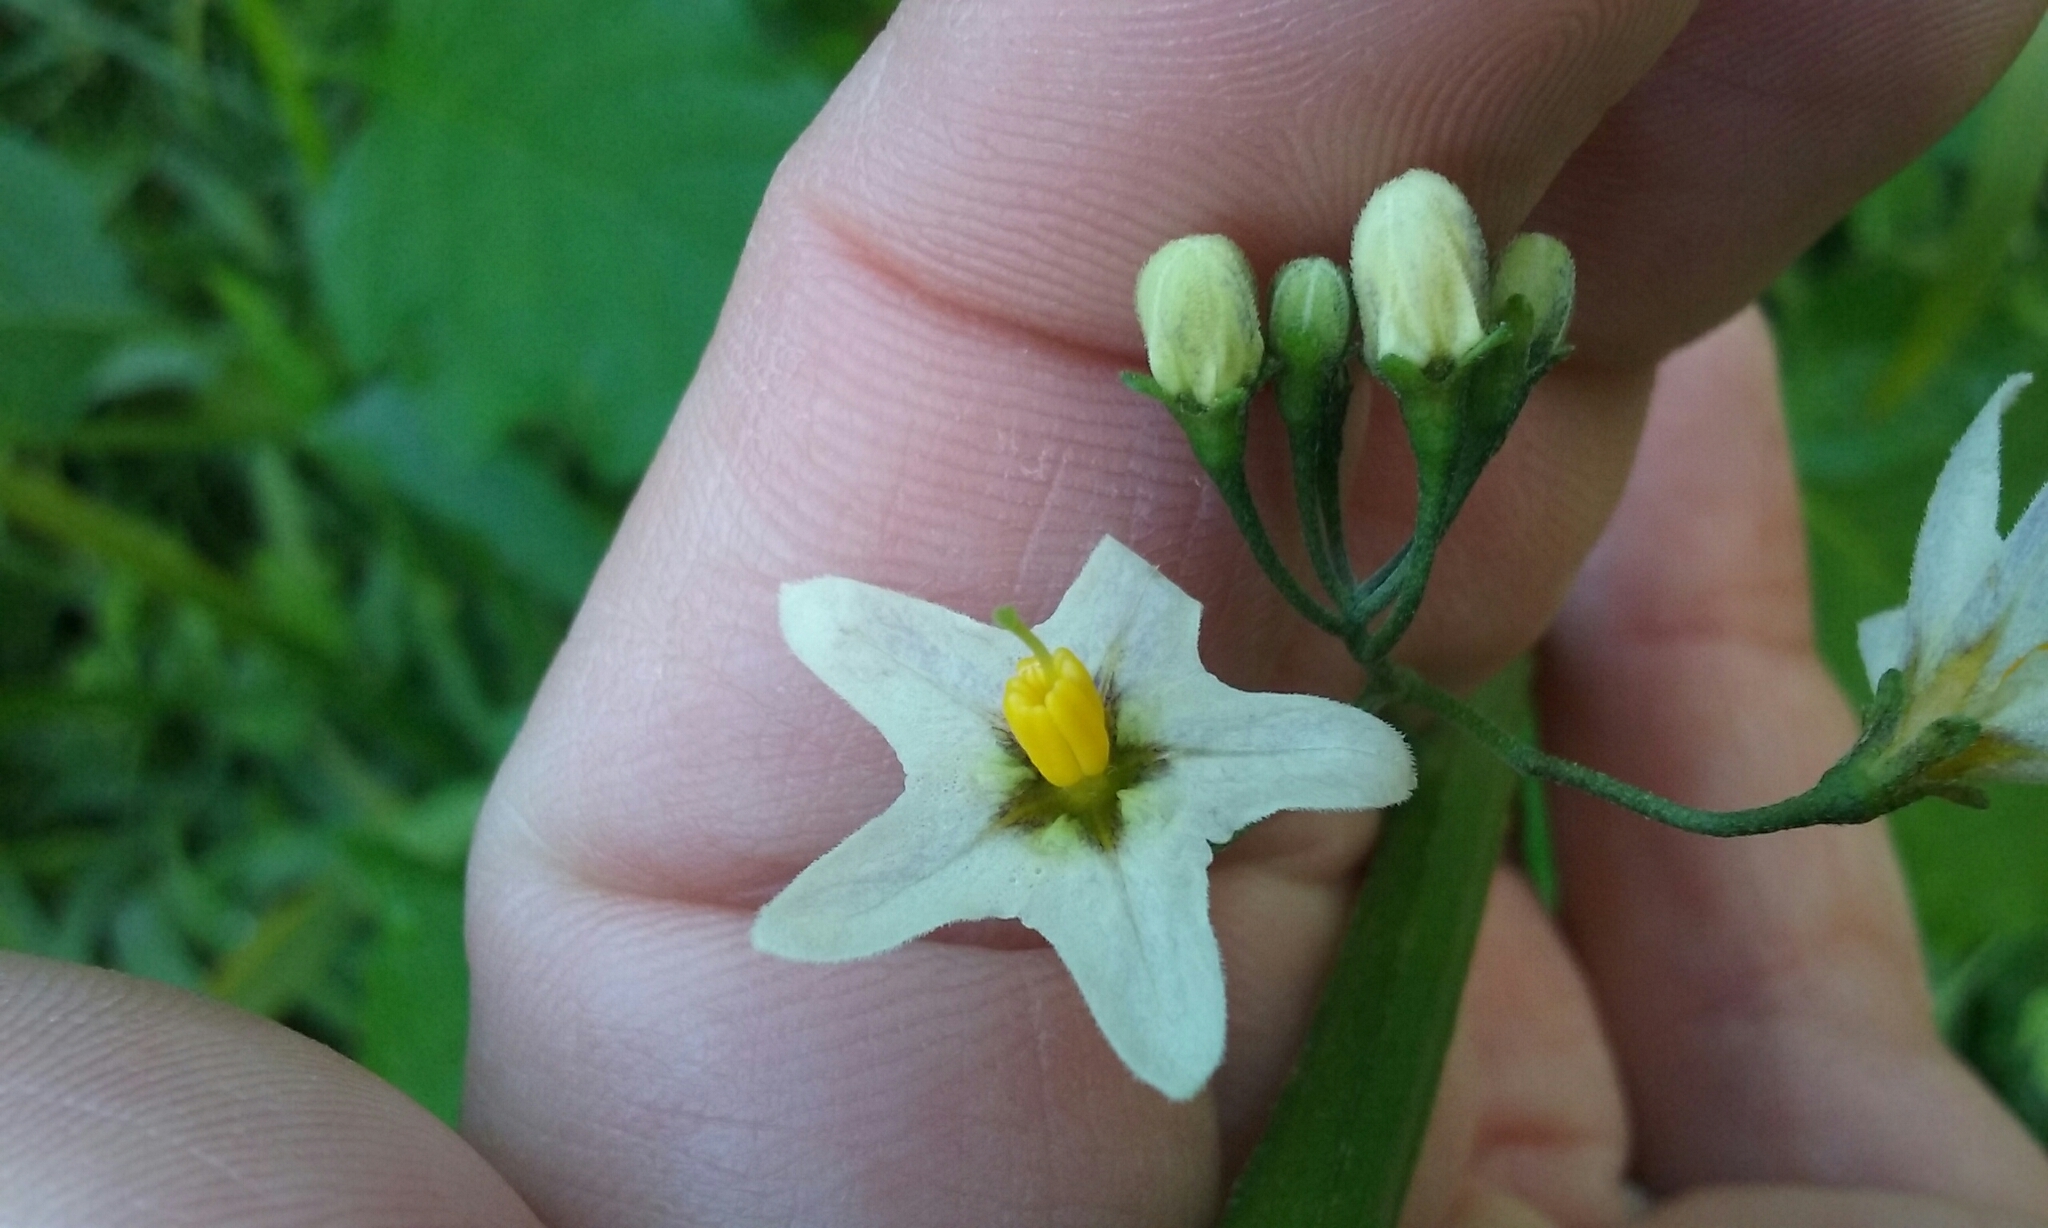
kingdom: Plantae
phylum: Tracheophyta
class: Magnoliopsida
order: Solanales
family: Solanaceae
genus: Solanum
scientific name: Solanum furcatum
